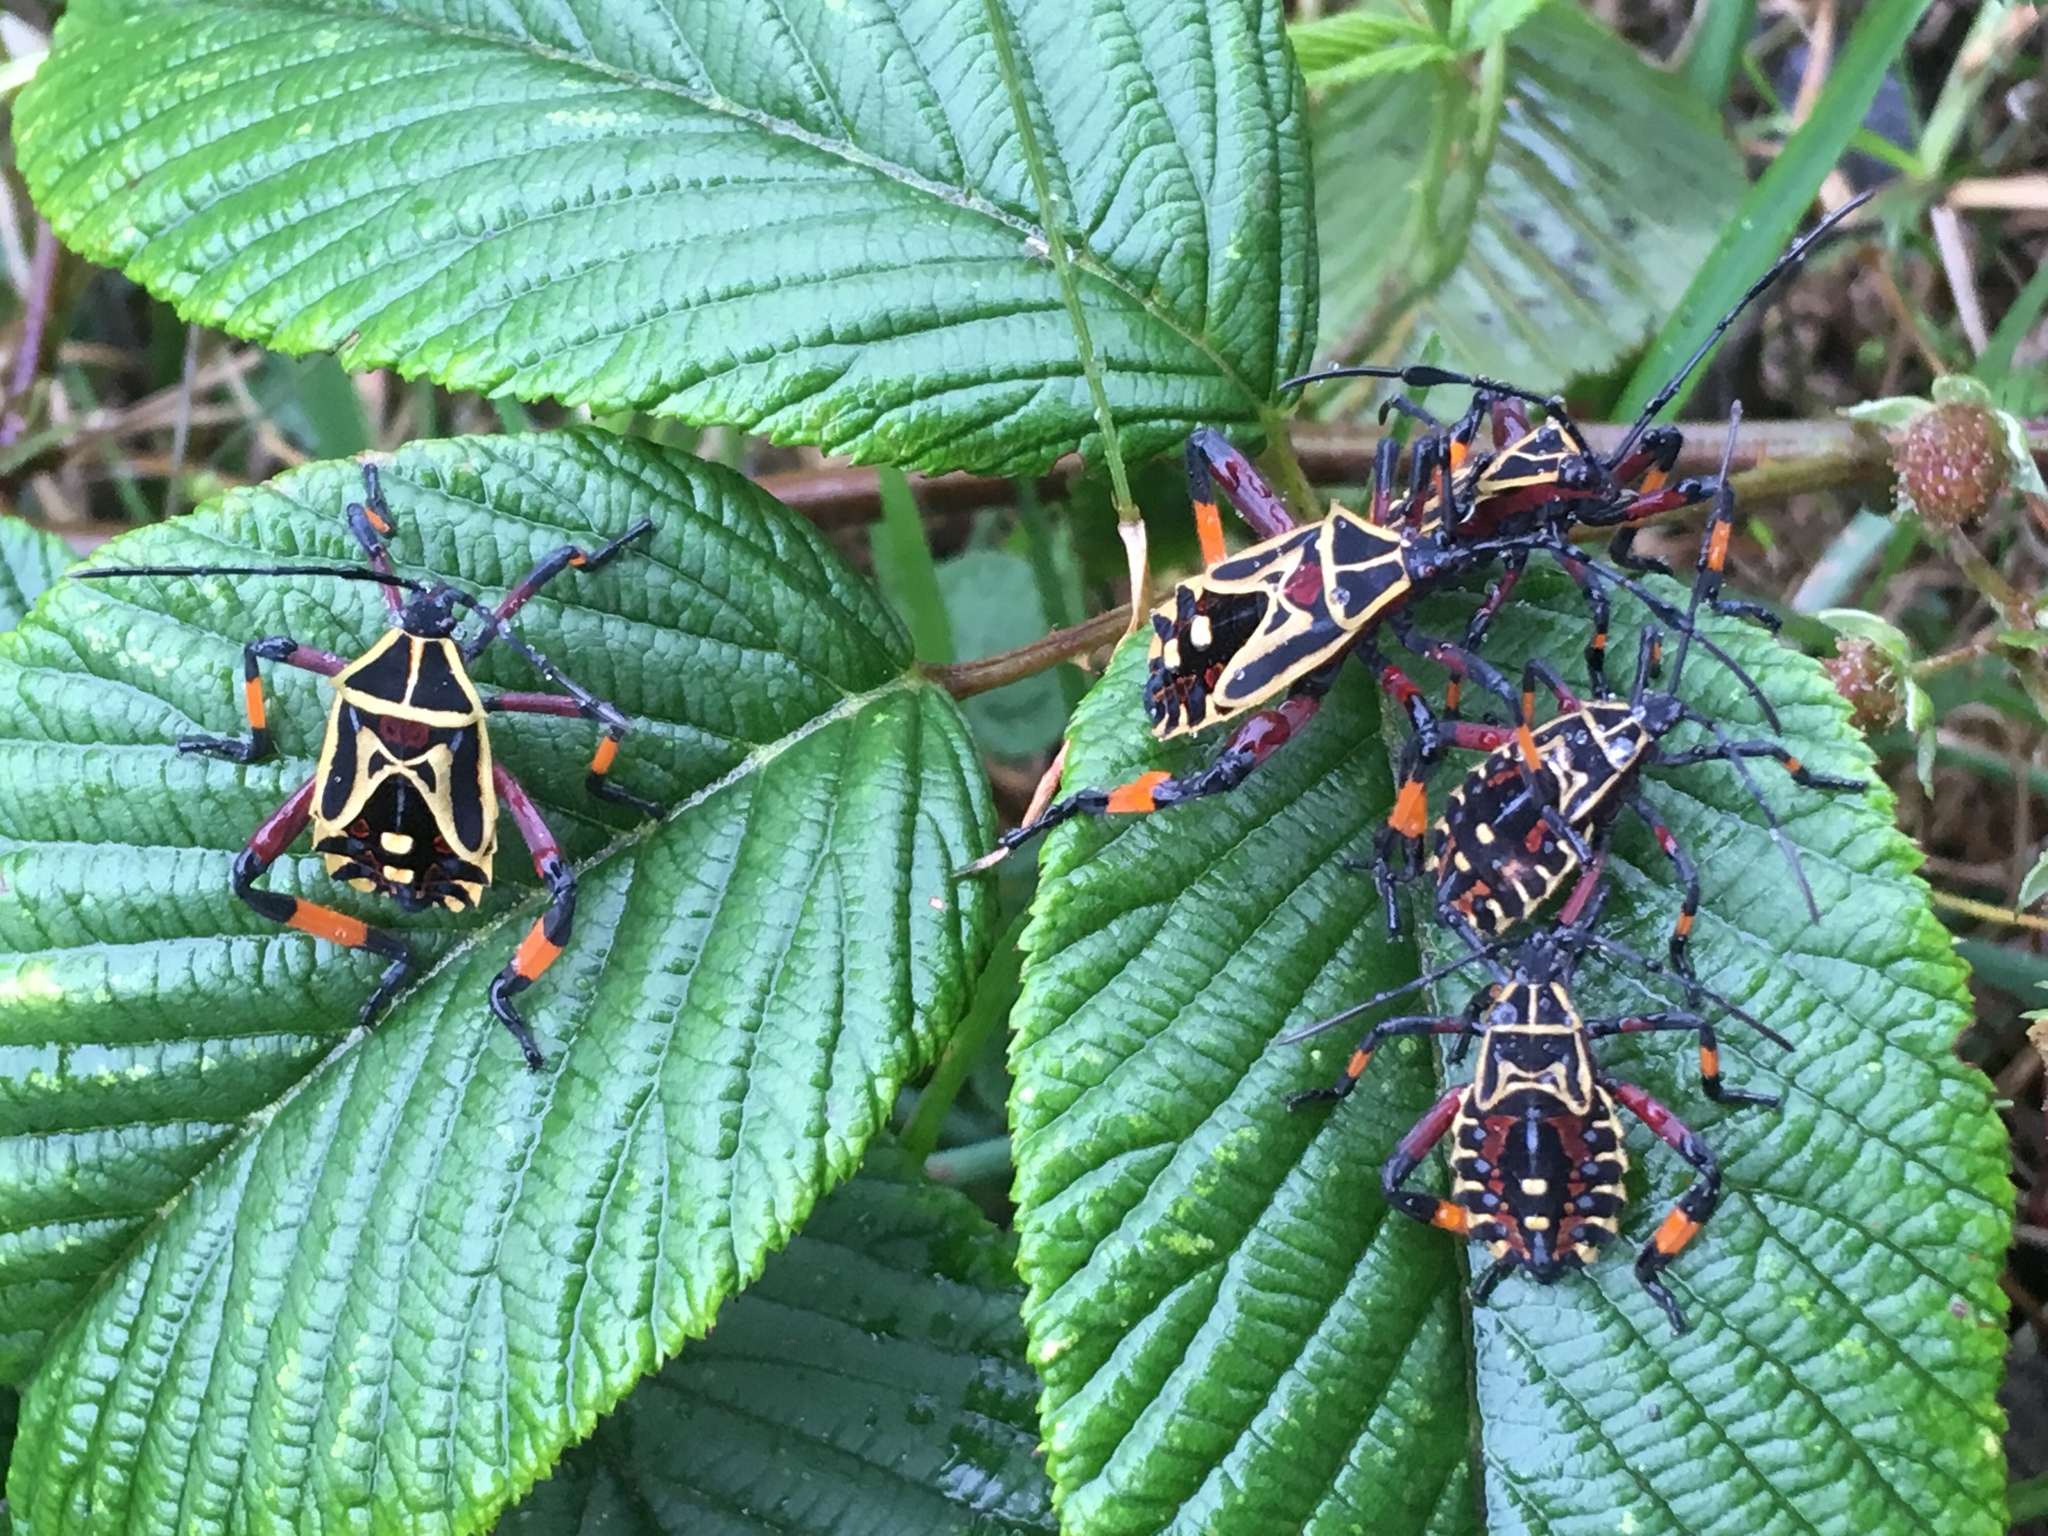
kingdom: Animalia
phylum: Arthropoda
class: Insecta
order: Hemiptera
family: Coreidae
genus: Thasus
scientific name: Thasus heteropus
